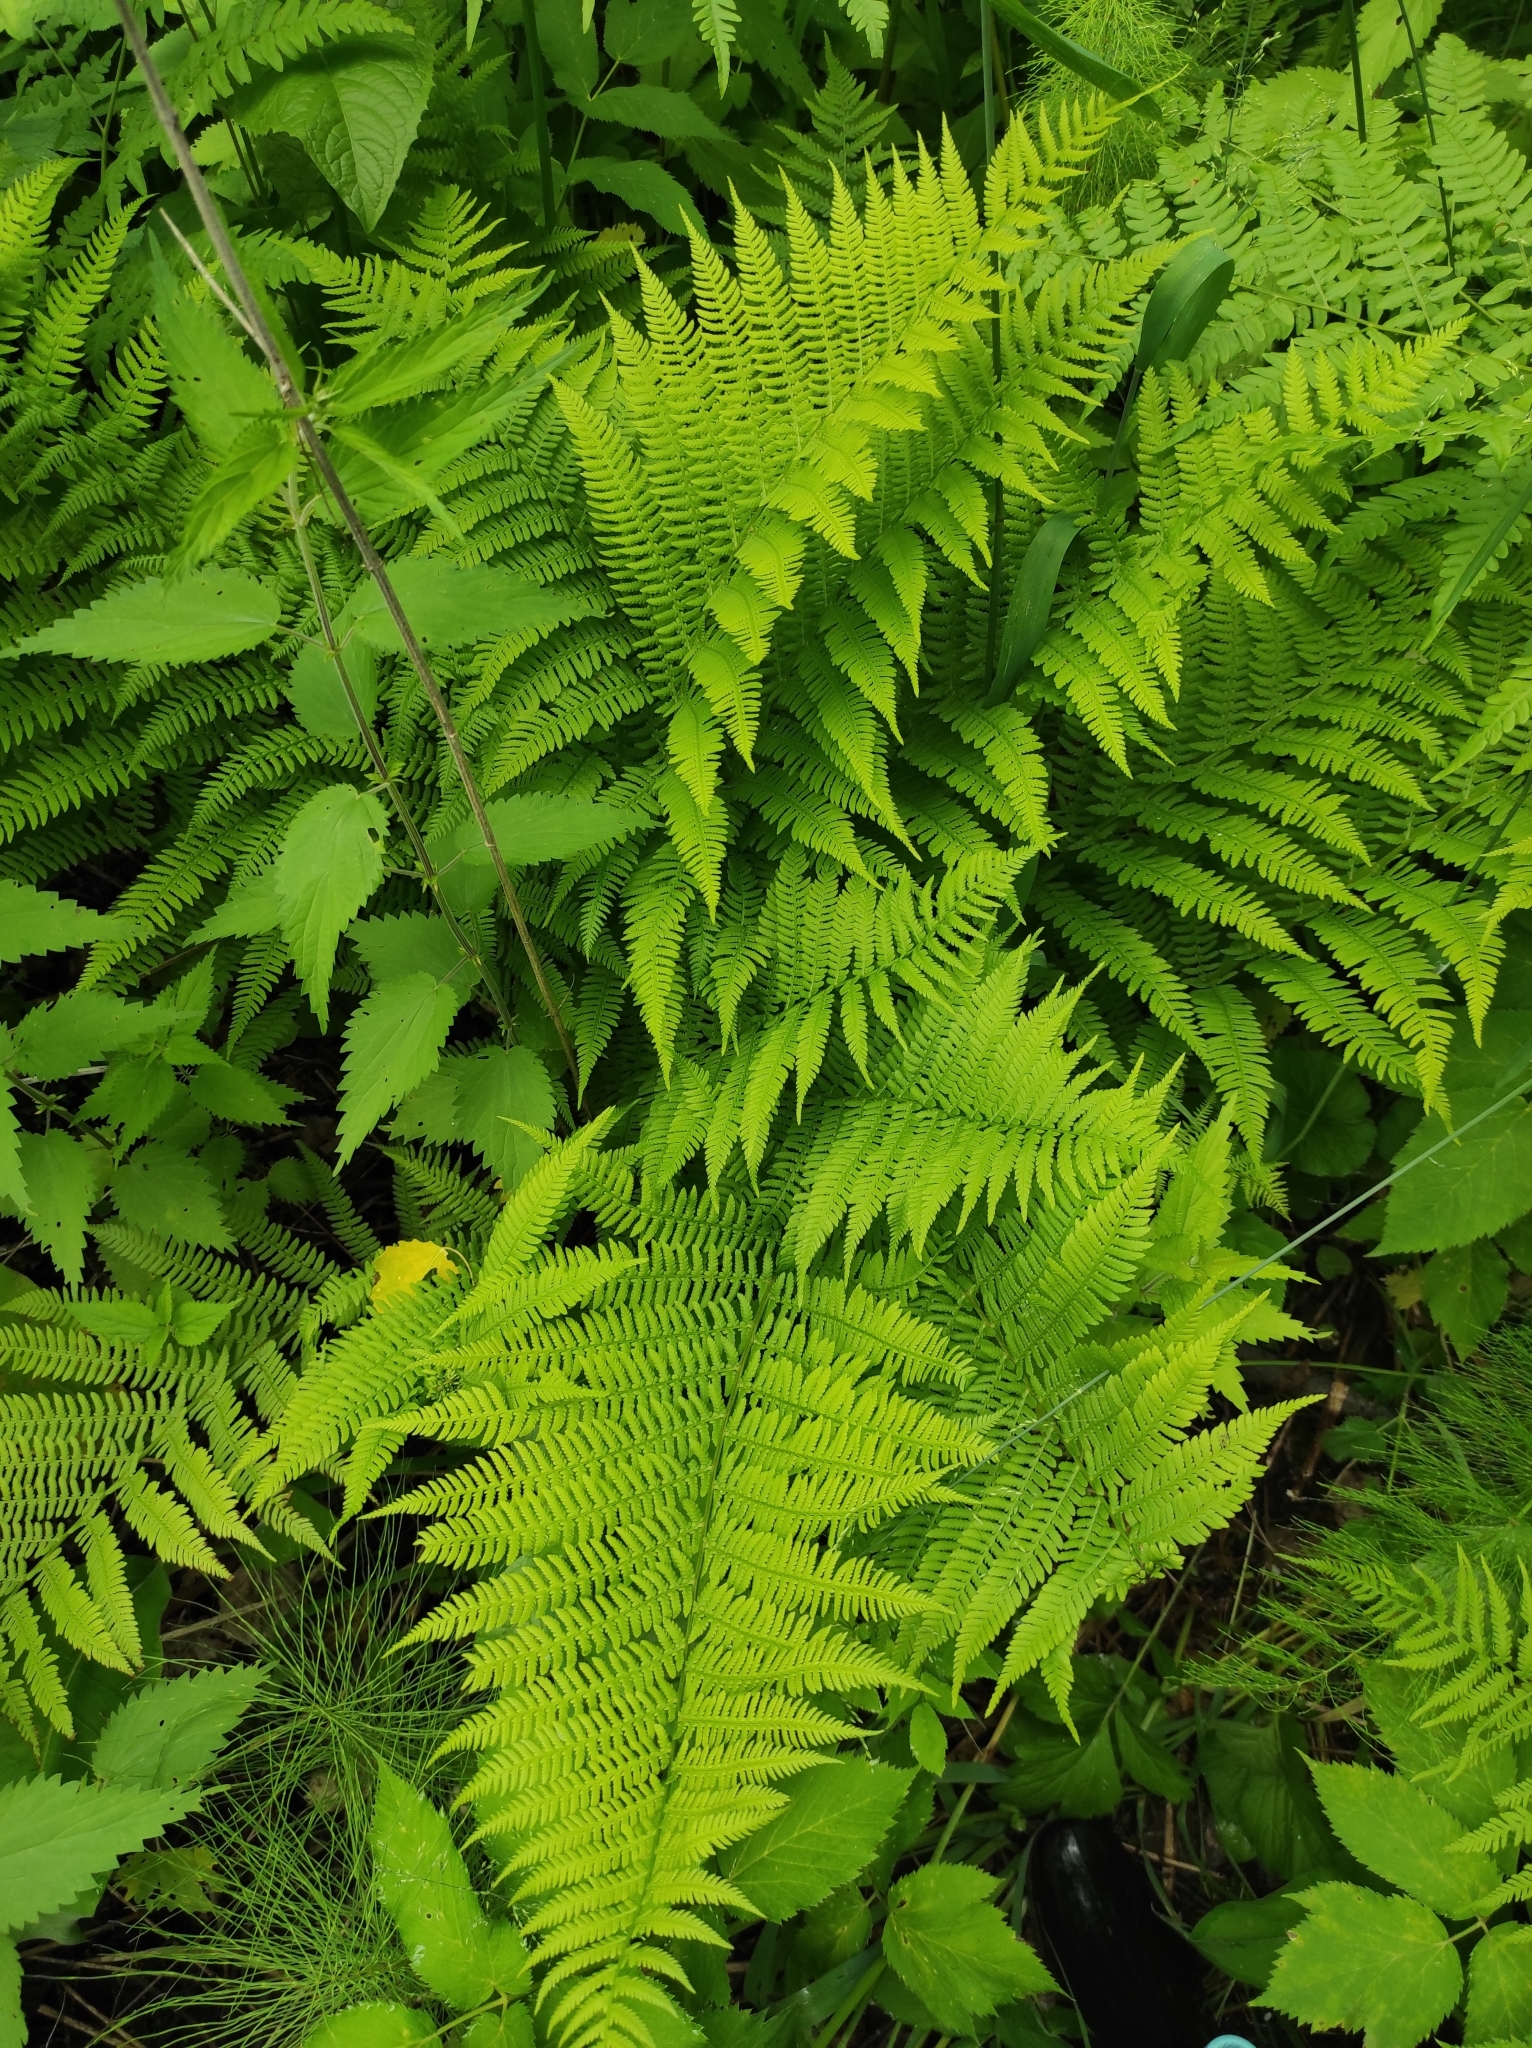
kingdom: Plantae
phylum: Tracheophyta
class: Polypodiopsida
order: Polypodiales
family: Athyriaceae
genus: Athyrium
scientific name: Athyrium filix-femina
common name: Lady fern
